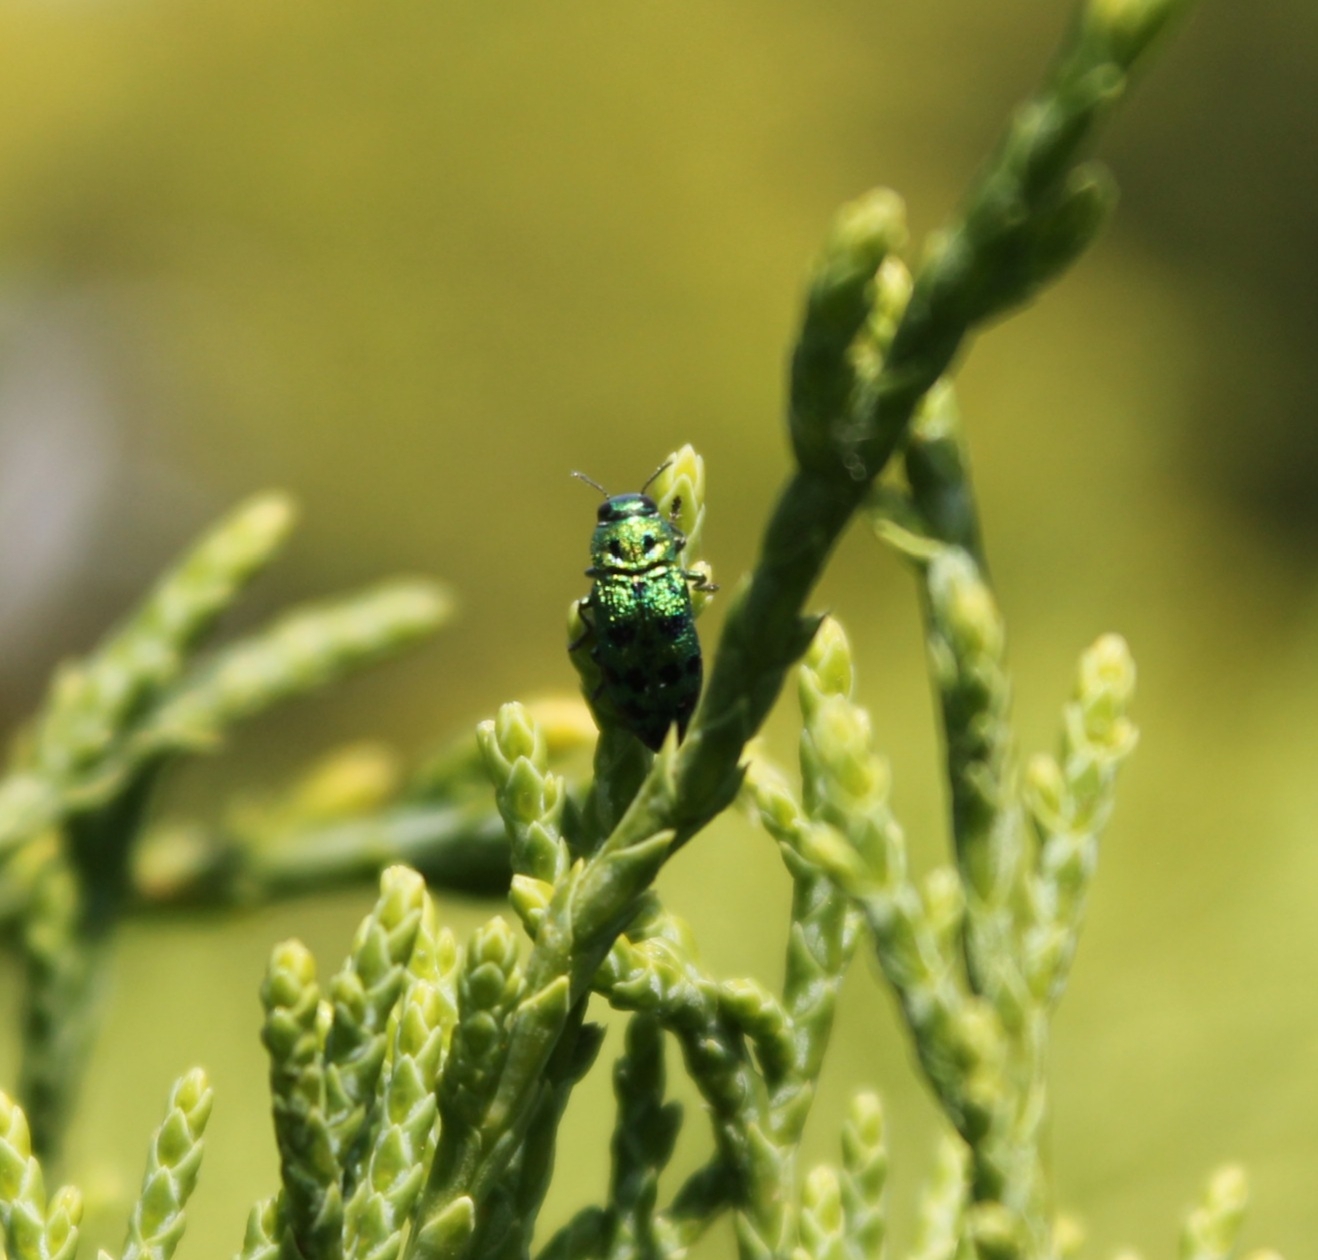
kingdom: Animalia
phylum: Arthropoda
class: Insecta
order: Coleoptera
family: Buprestidae
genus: Lamprodila
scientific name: Lamprodila festiva
